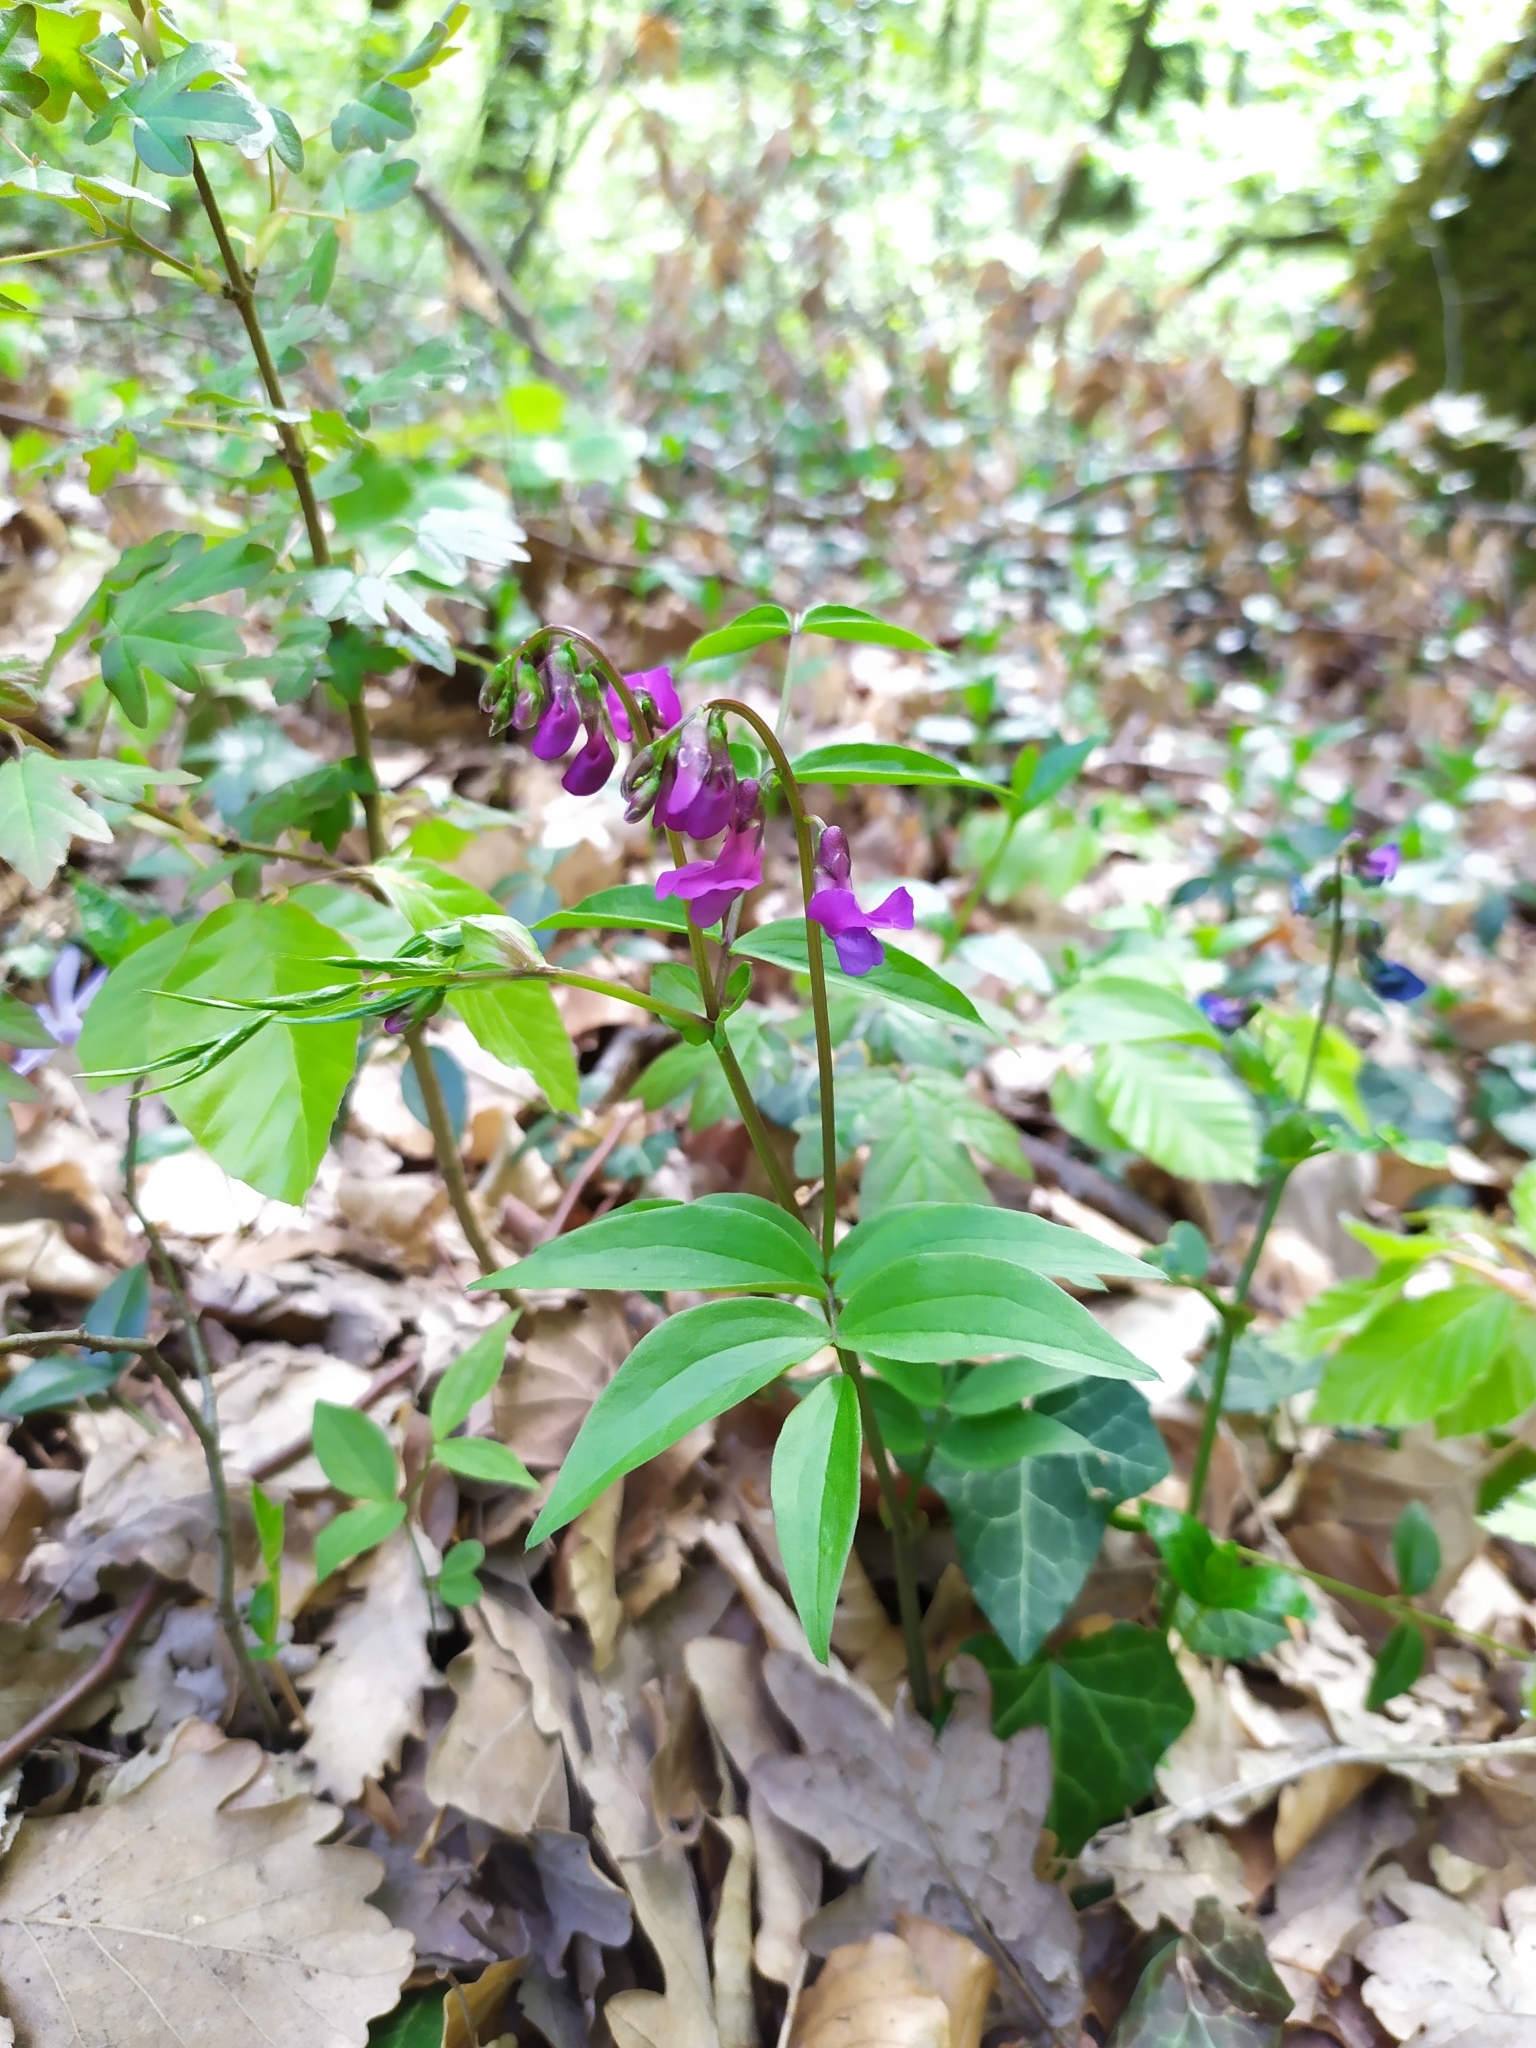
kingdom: Plantae
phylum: Tracheophyta
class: Magnoliopsida
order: Fabales
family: Fabaceae
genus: Lathyrus
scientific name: Lathyrus vernus
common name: Spring pea
